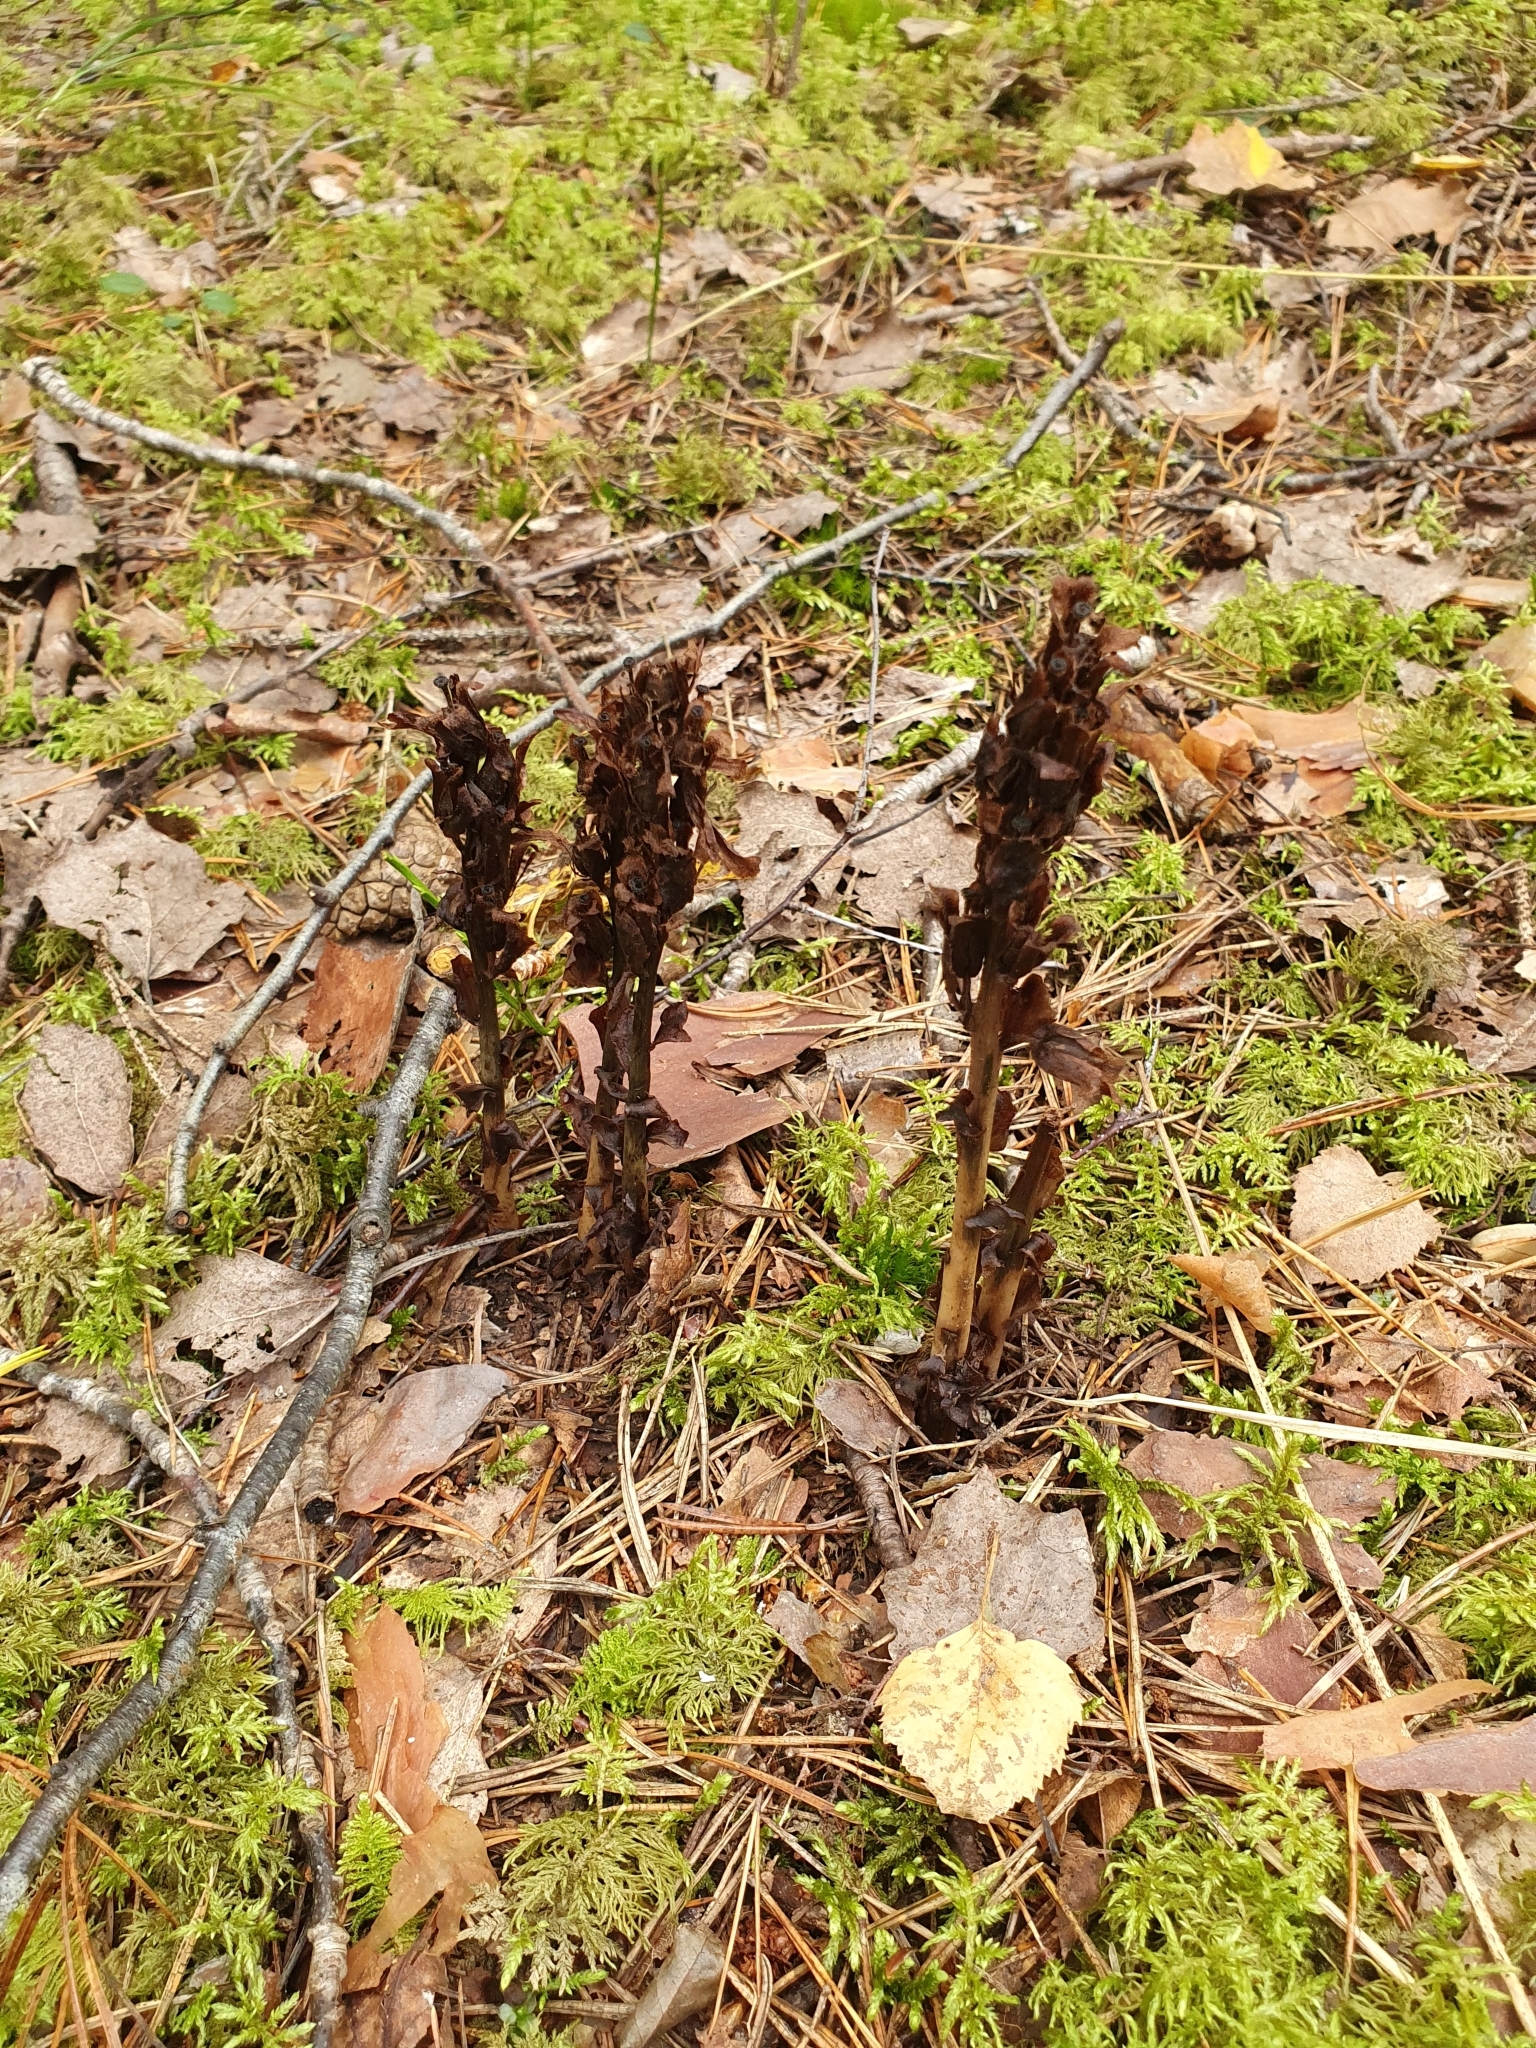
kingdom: Plantae
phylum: Tracheophyta
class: Magnoliopsida
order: Ericales
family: Ericaceae
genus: Hypopitys
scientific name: Hypopitys monotropa
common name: Yellow bird's-nest
